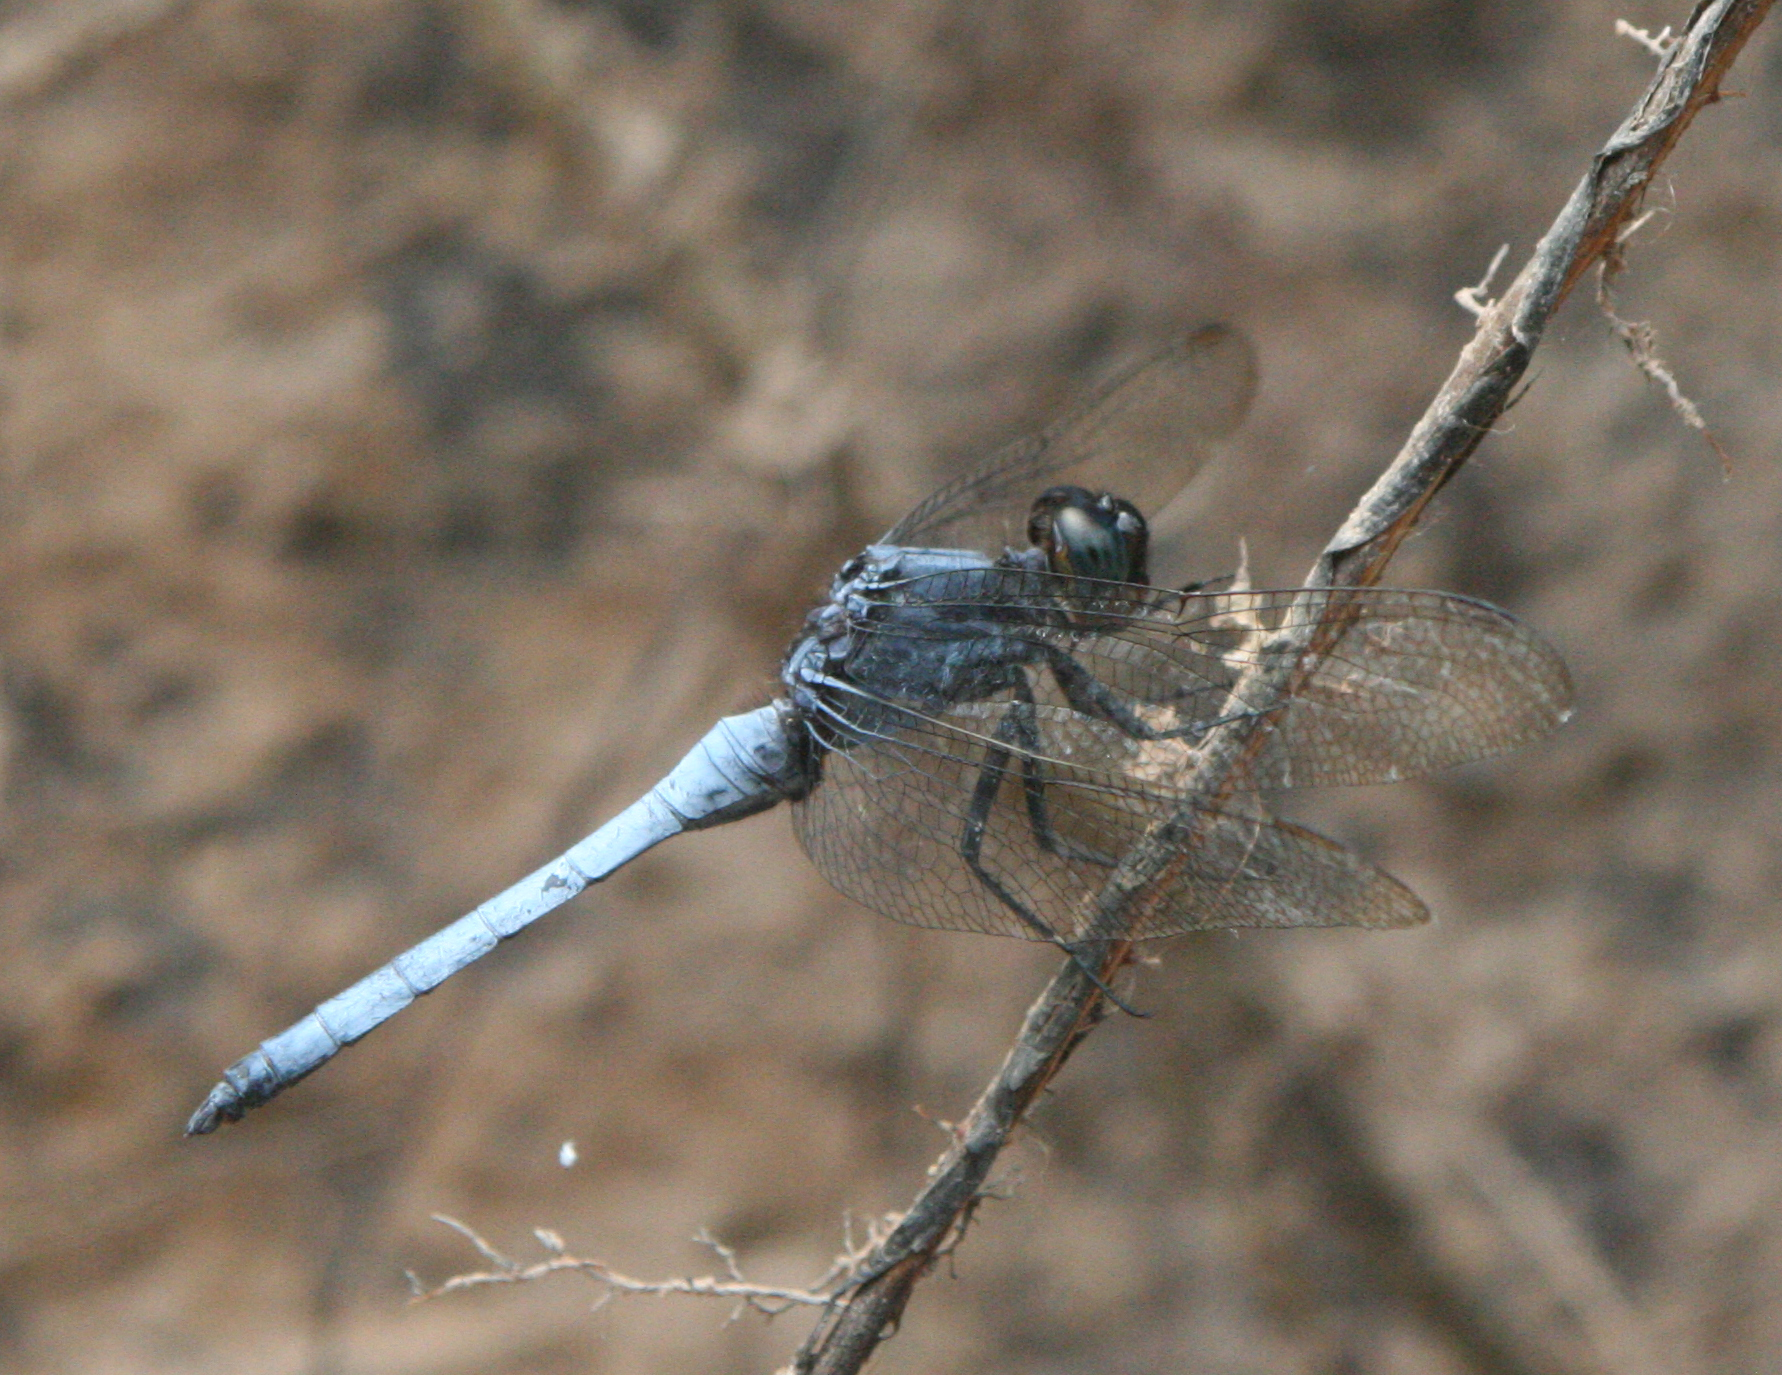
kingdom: Animalia
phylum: Arthropoda
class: Insecta
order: Odonata
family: Libellulidae
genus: Orthetrum
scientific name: Orthetrum glaucum
